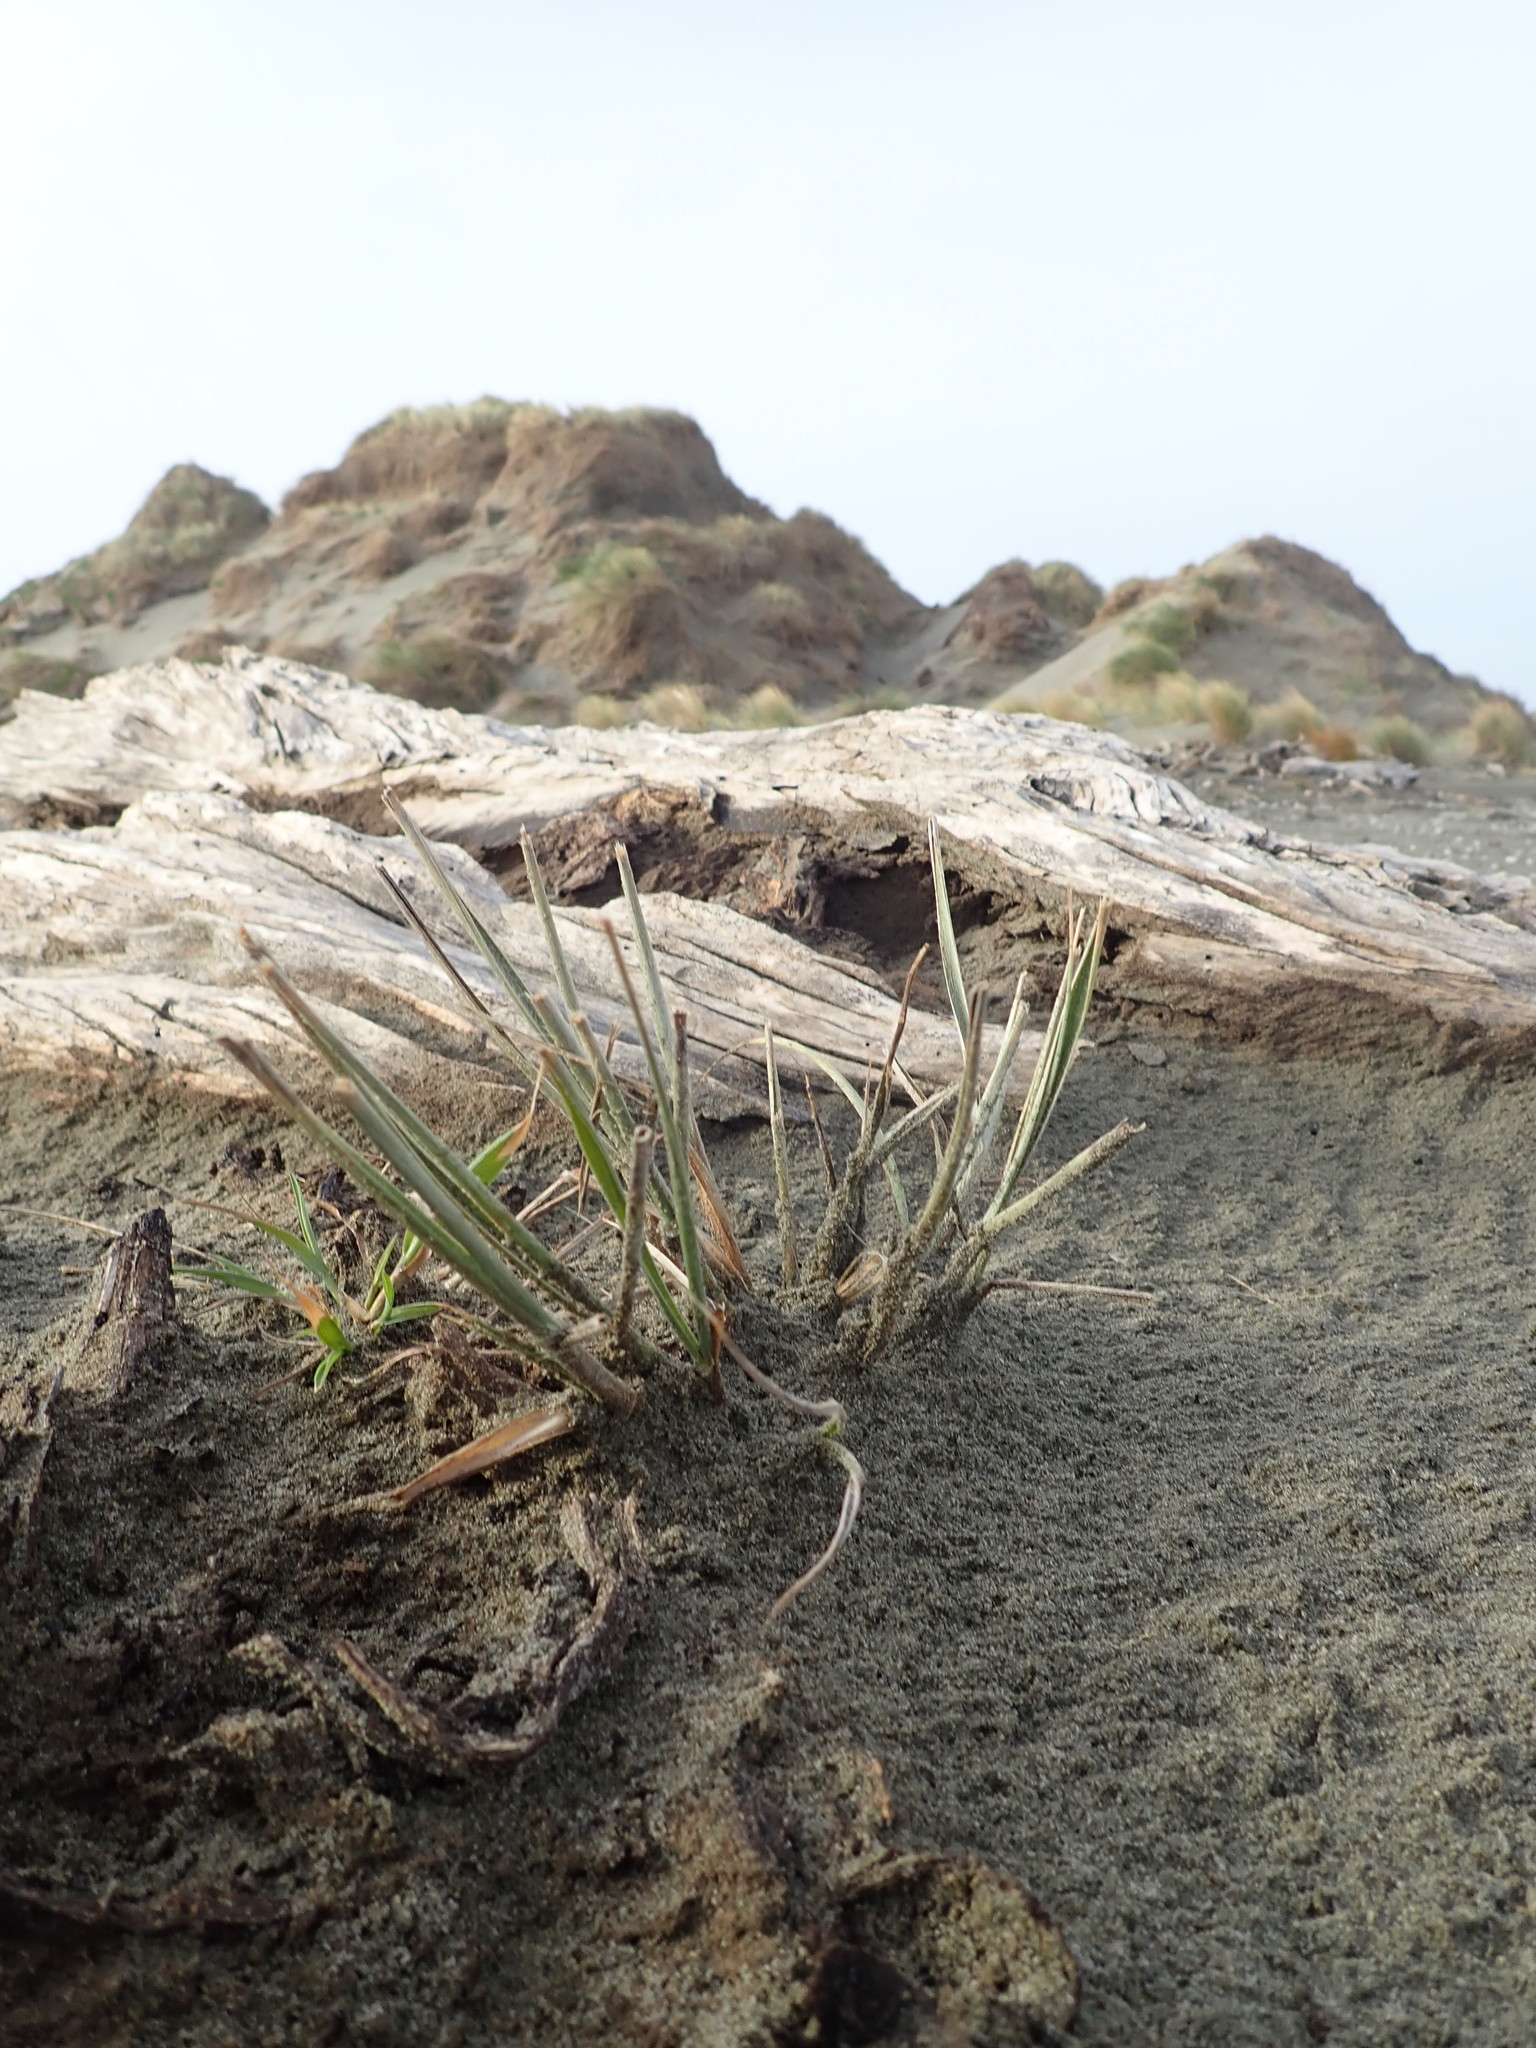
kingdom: Plantae
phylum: Tracheophyta
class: Liliopsida
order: Poales
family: Poaceae
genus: Spinifex
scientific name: Spinifex sericeus
